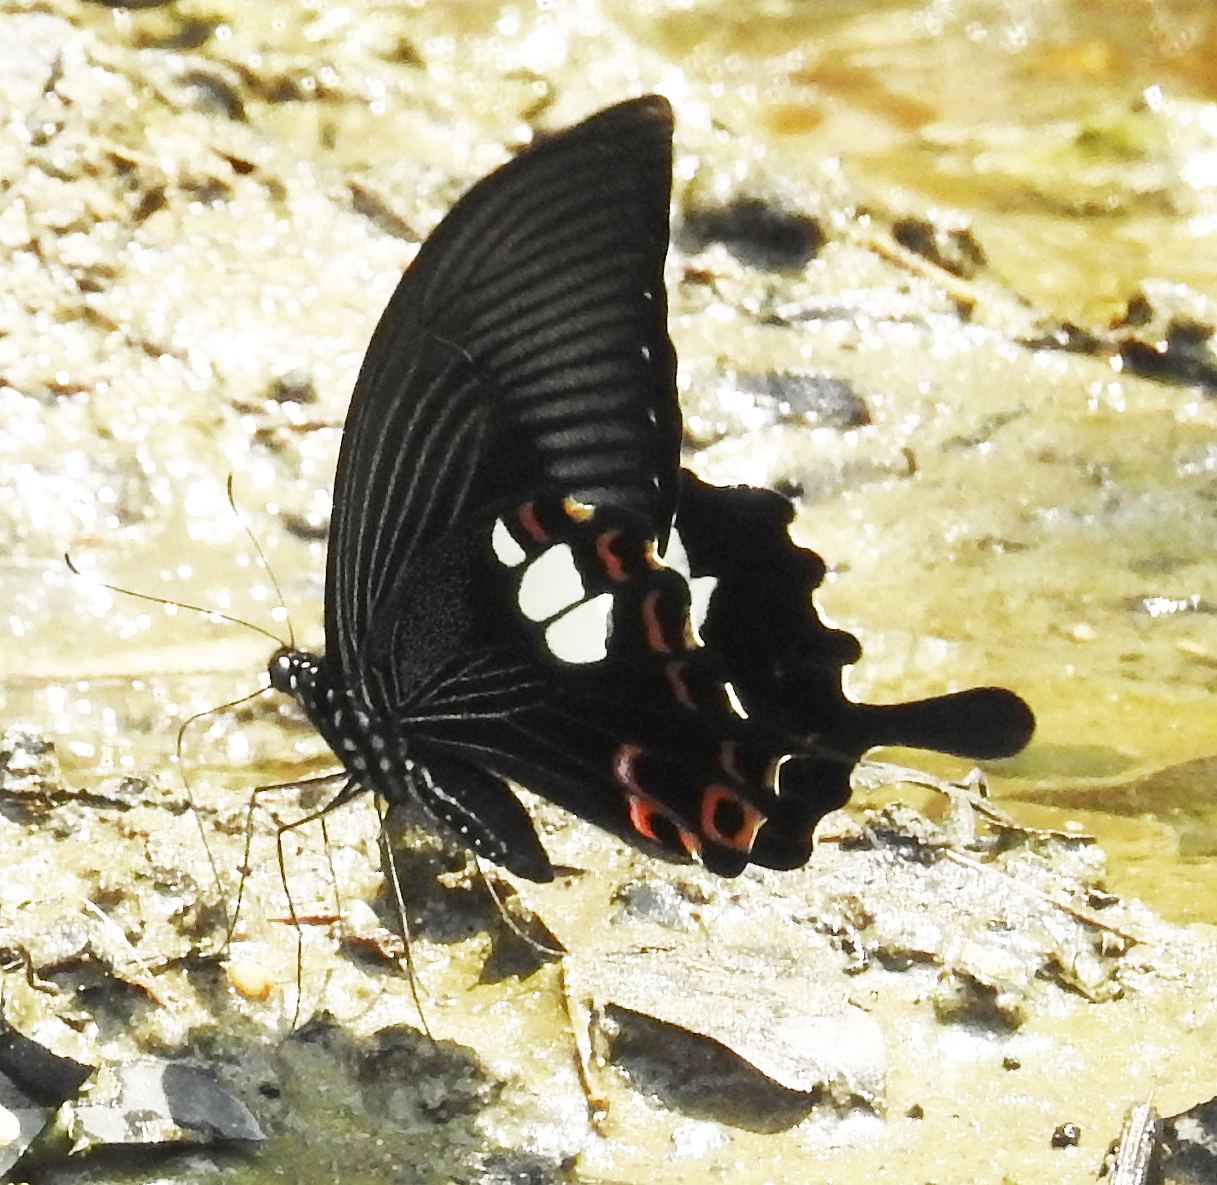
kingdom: Animalia
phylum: Arthropoda
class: Insecta
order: Lepidoptera
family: Papilionidae
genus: Papilio
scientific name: Papilio helenus
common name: Red helen
